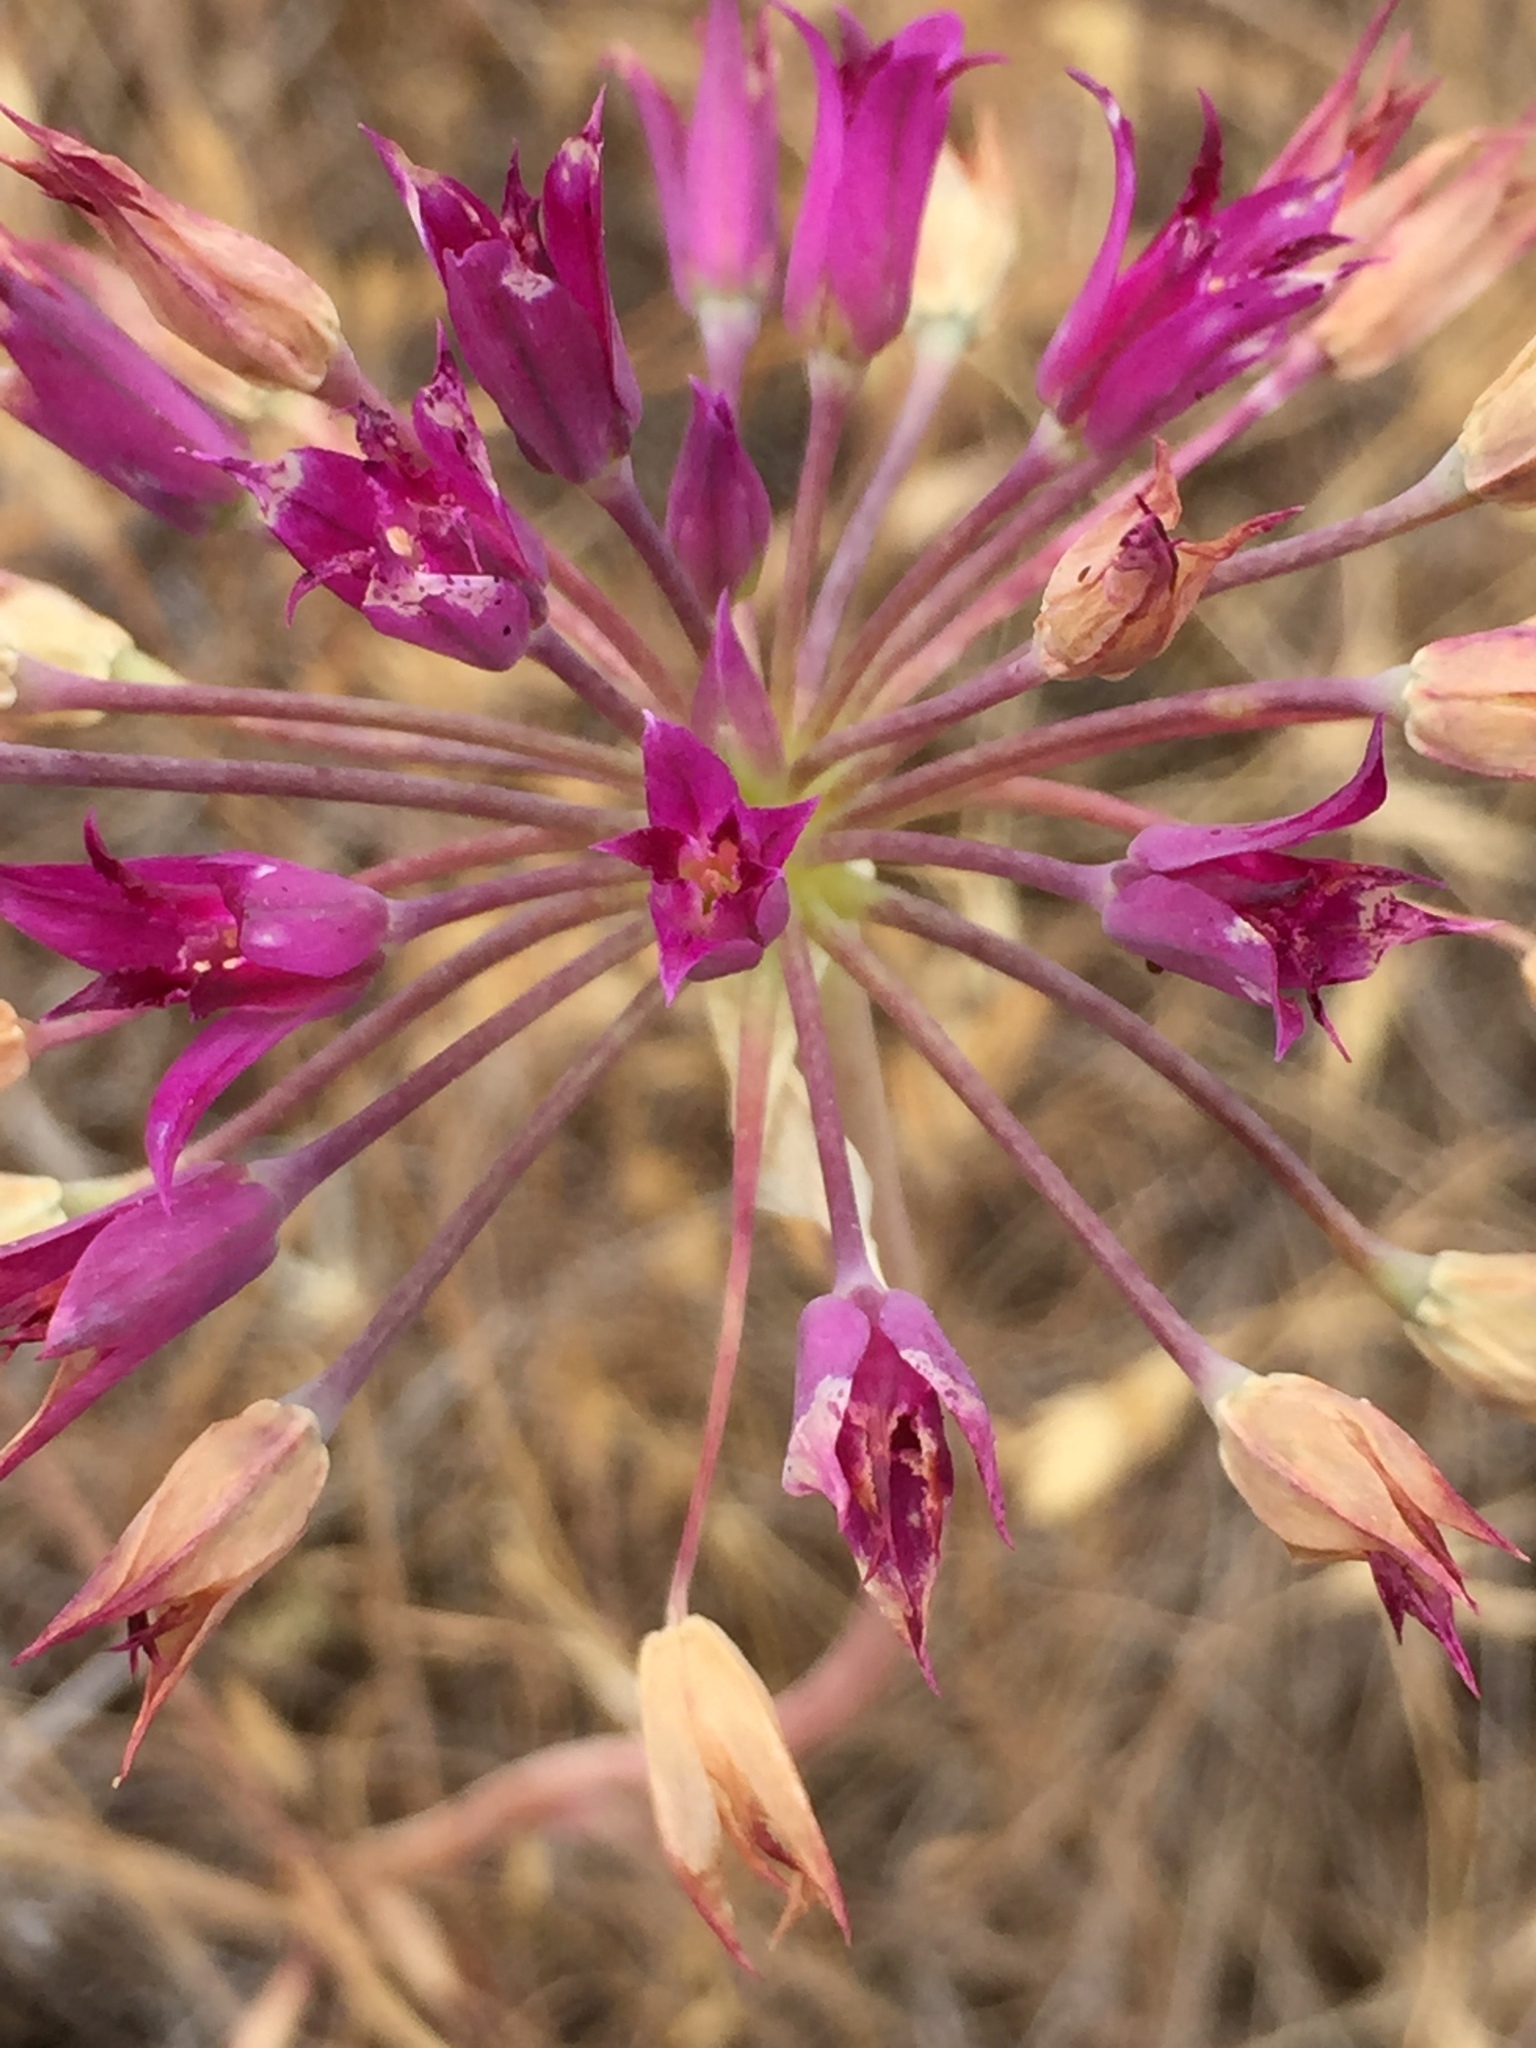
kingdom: Plantae
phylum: Tracheophyta
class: Liliopsida
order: Asparagales
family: Amaryllidaceae
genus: Allium
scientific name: Allium crispum
